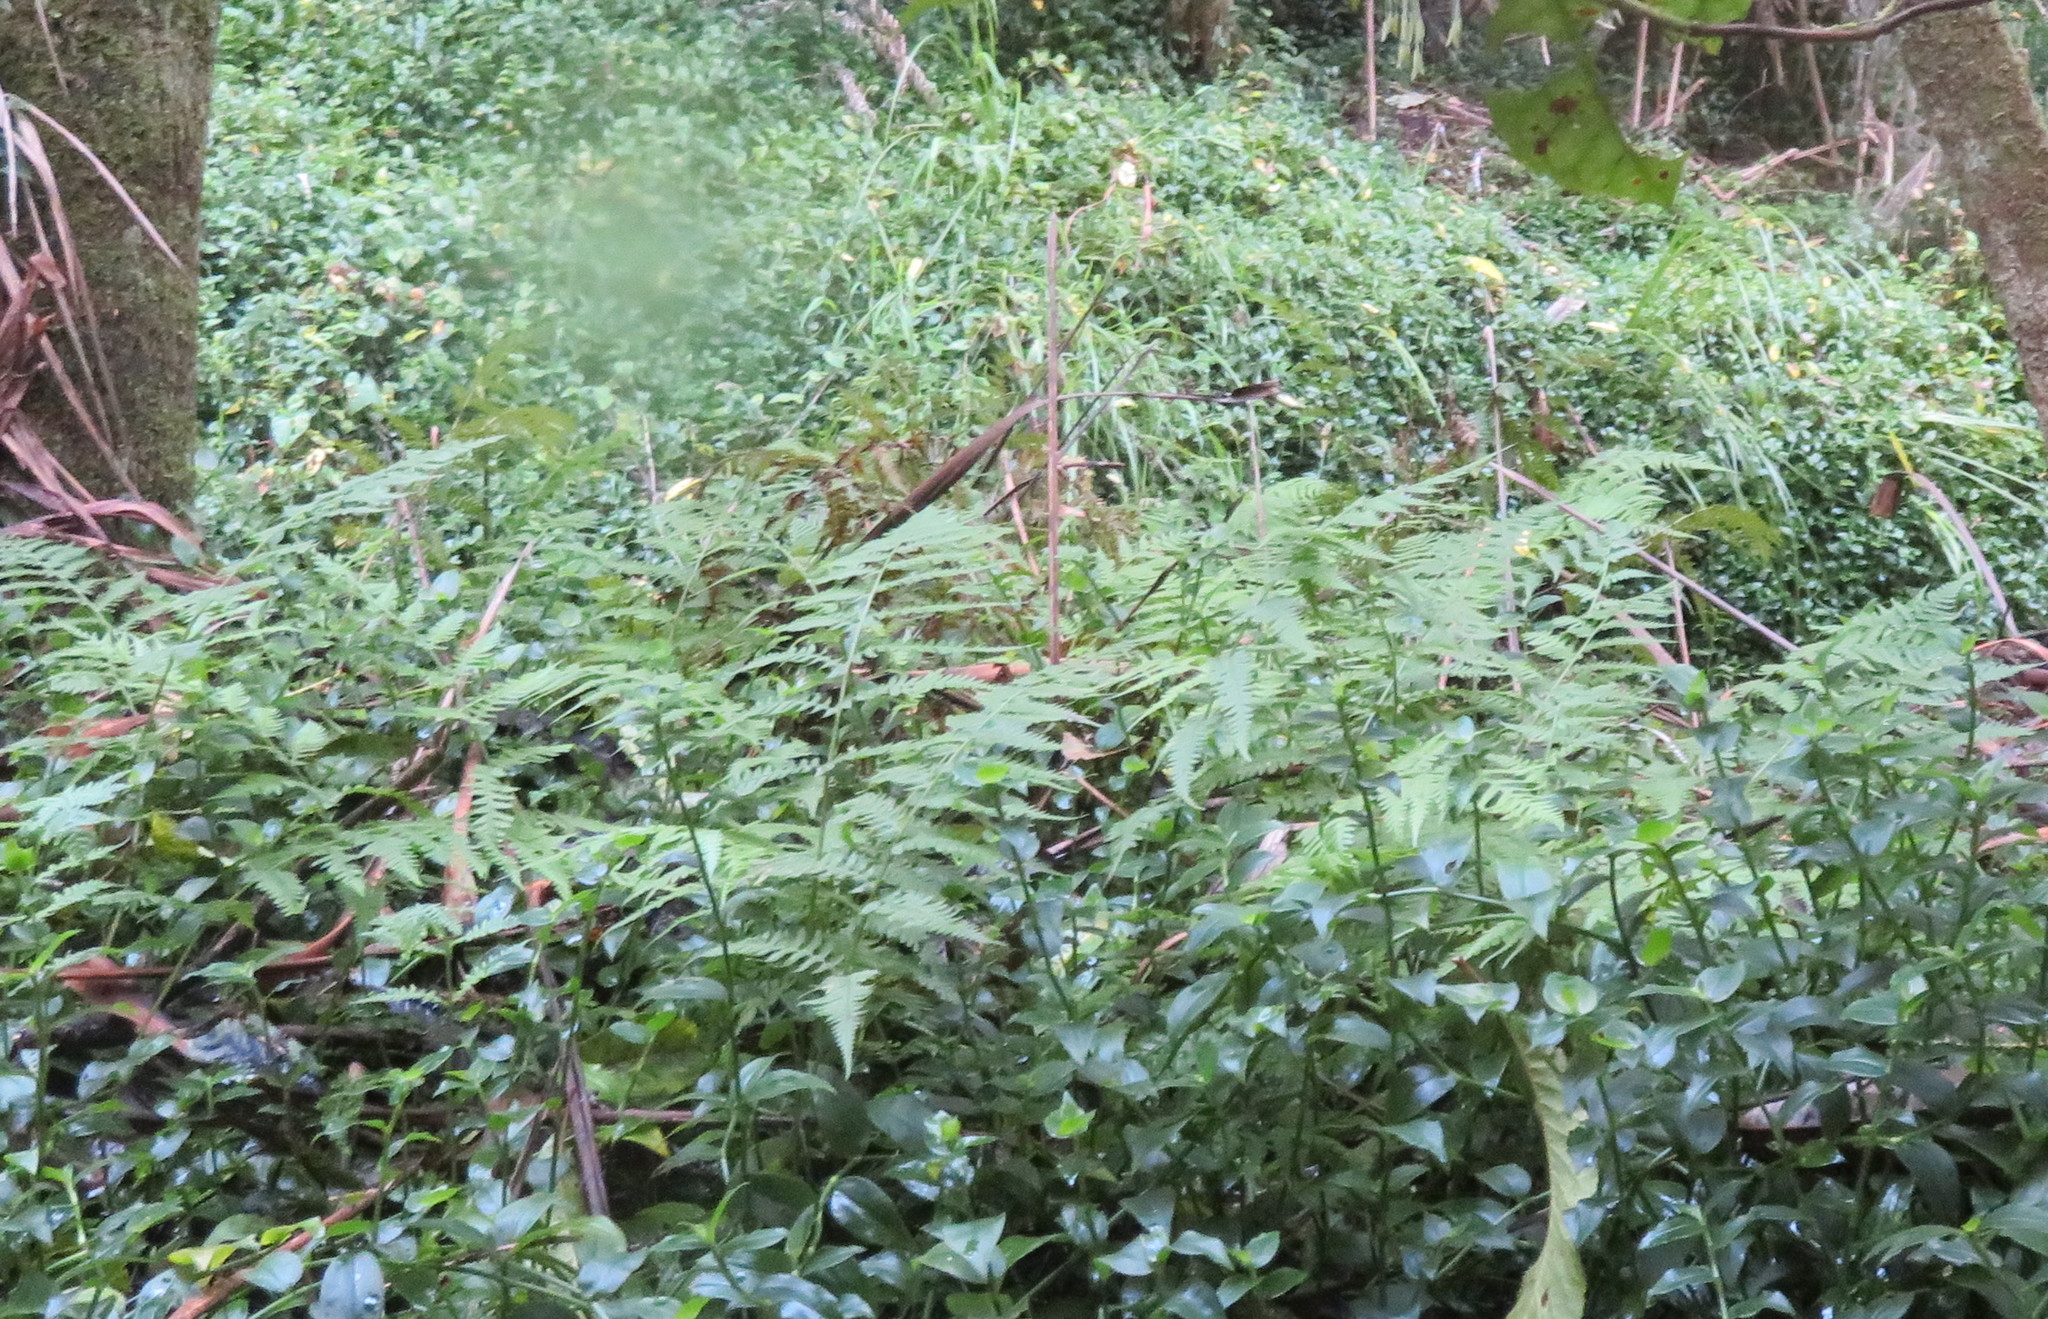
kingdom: Plantae
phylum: Tracheophyta
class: Polypodiopsida
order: Polypodiales
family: Athyriaceae
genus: Diplazium
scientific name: Diplazium congruum
